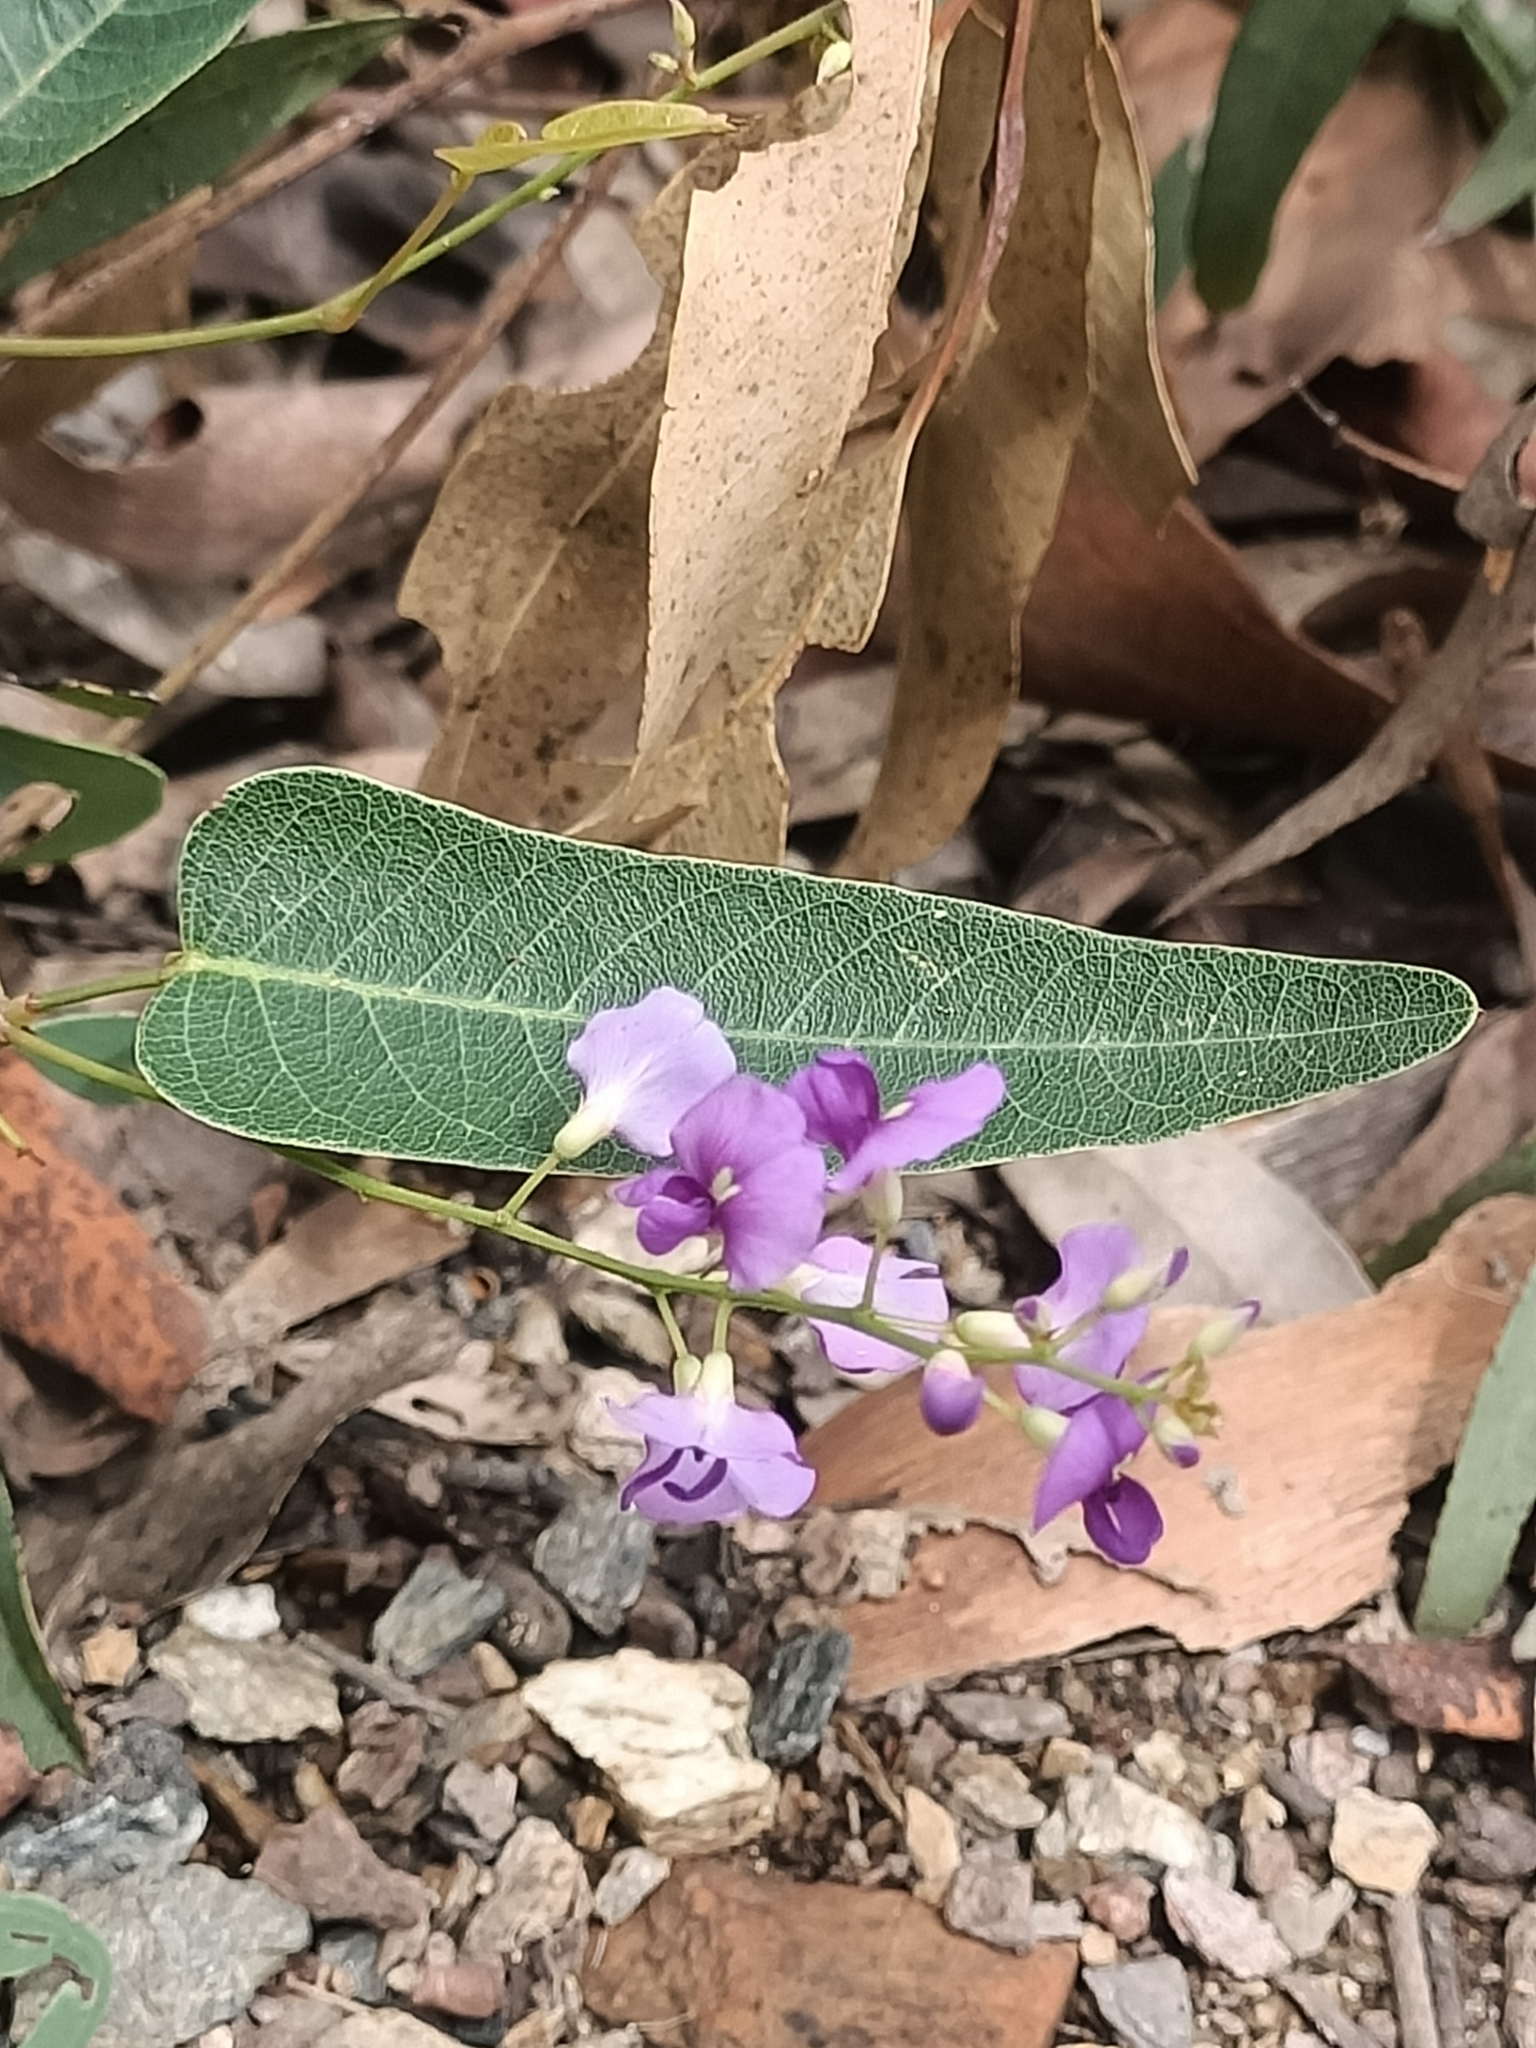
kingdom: Plantae
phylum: Tracheophyta
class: Magnoliopsida
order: Fabales
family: Fabaceae
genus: Hardenbergia
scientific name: Hardenbergia violacea
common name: Coral-pea
